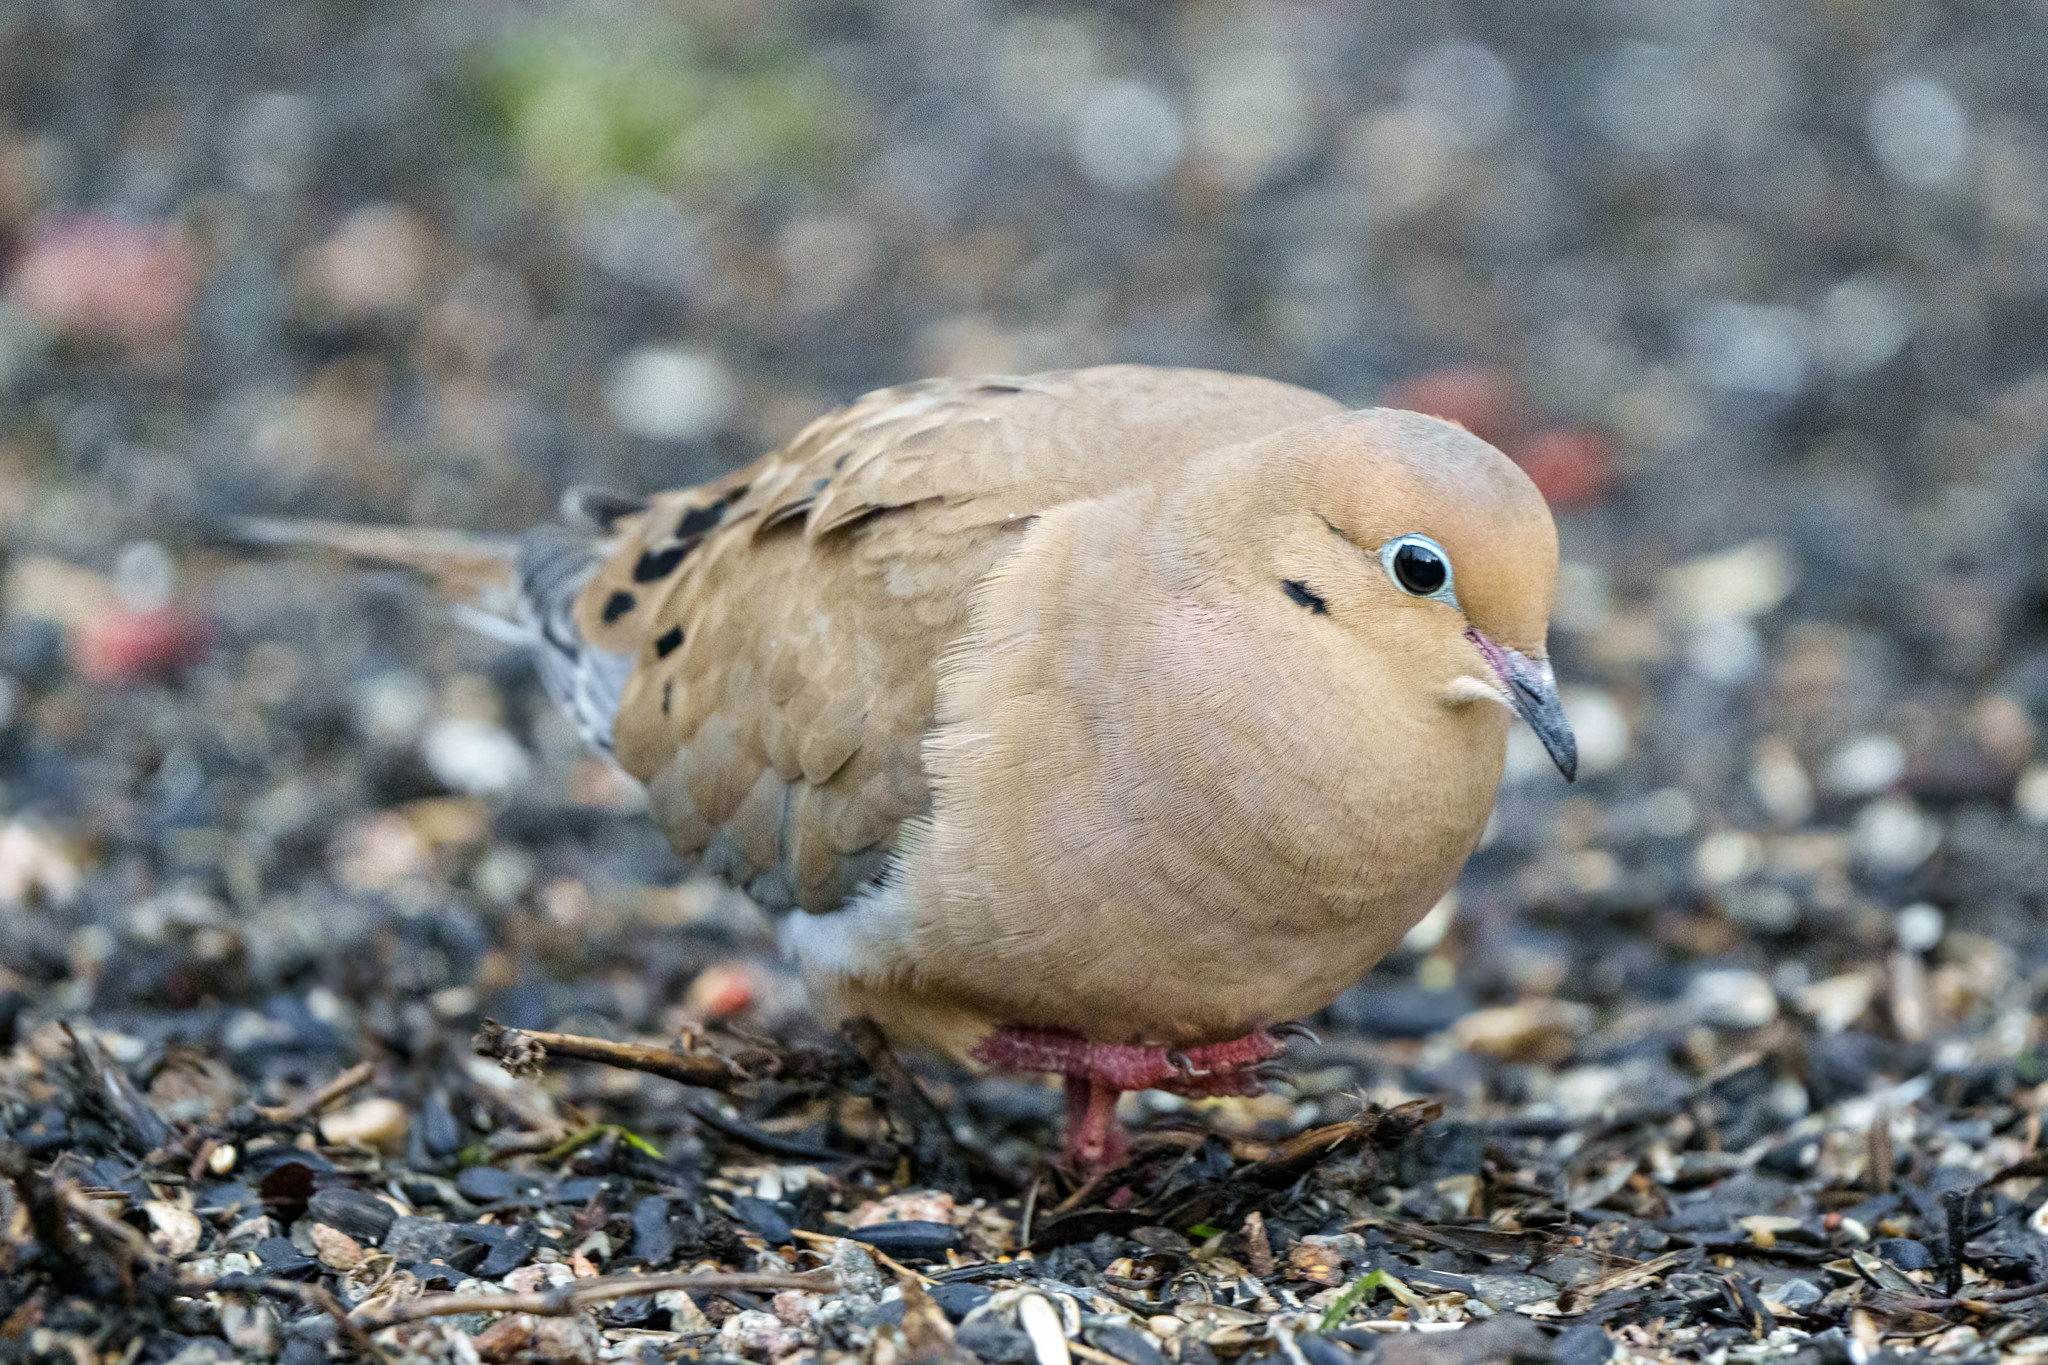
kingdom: Animalia
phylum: Chordata
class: Aves
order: Columbiformes
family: Columbidae
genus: Zenaida
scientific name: Zenaida macroura
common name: Mourning dove
